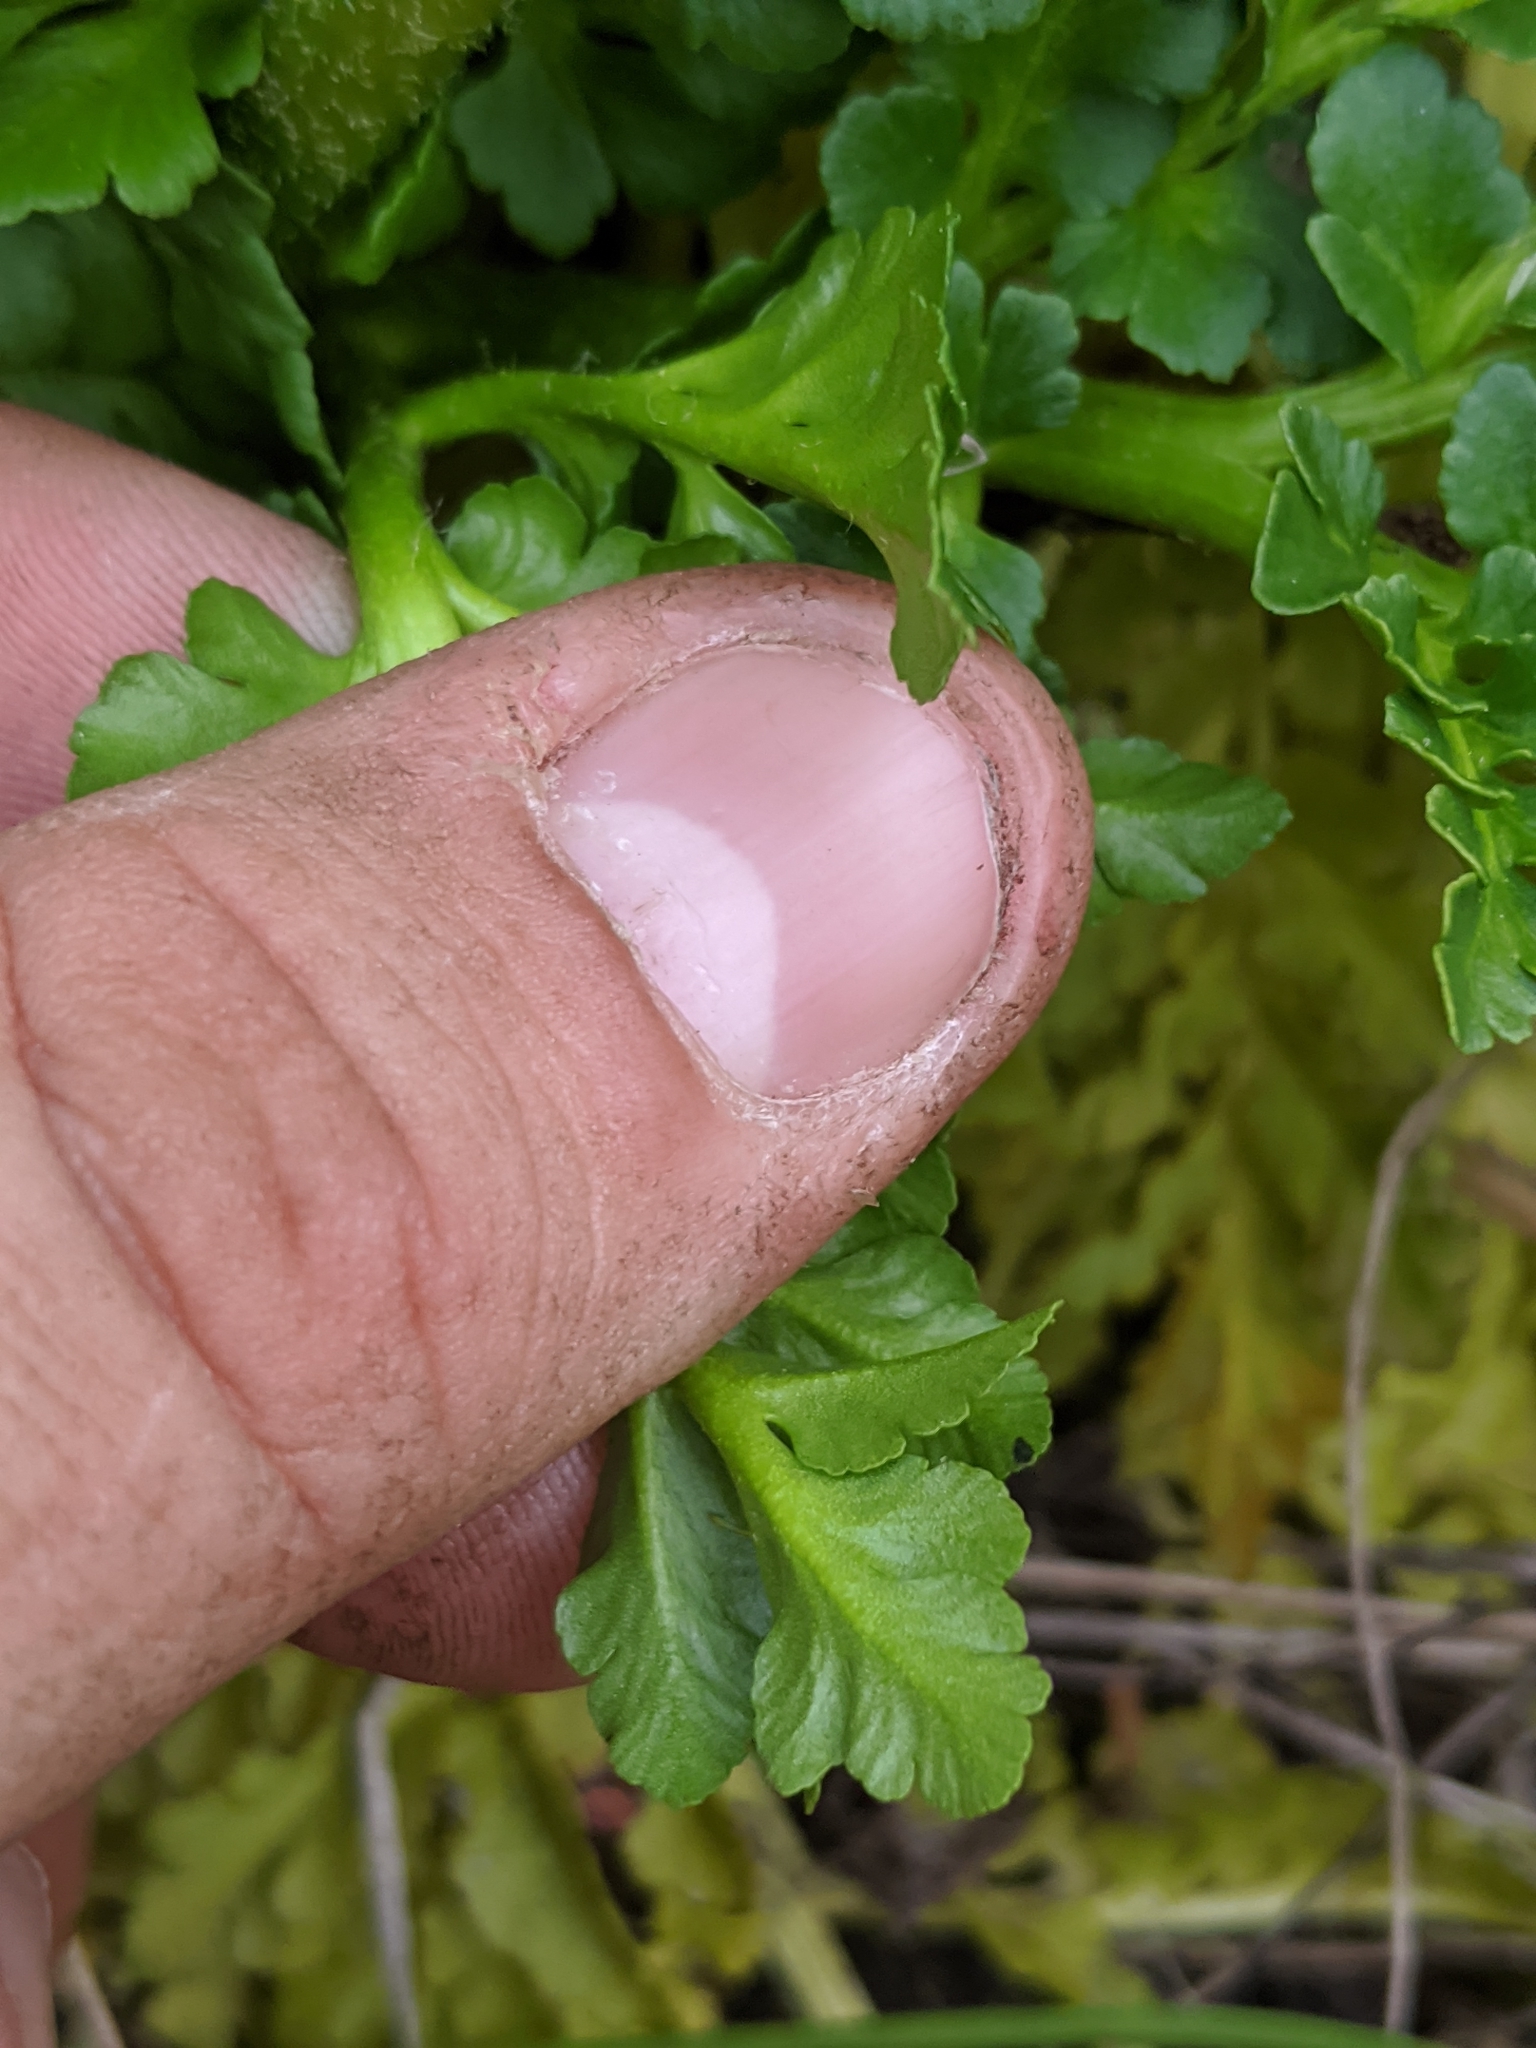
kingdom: Plantae
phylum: Tracheophyta
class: Polypodiopsida
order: Ophioglossales
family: Ophioglossaceae
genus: Sceptridium
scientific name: Sceptridium multifidum
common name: Leathery grape fern
